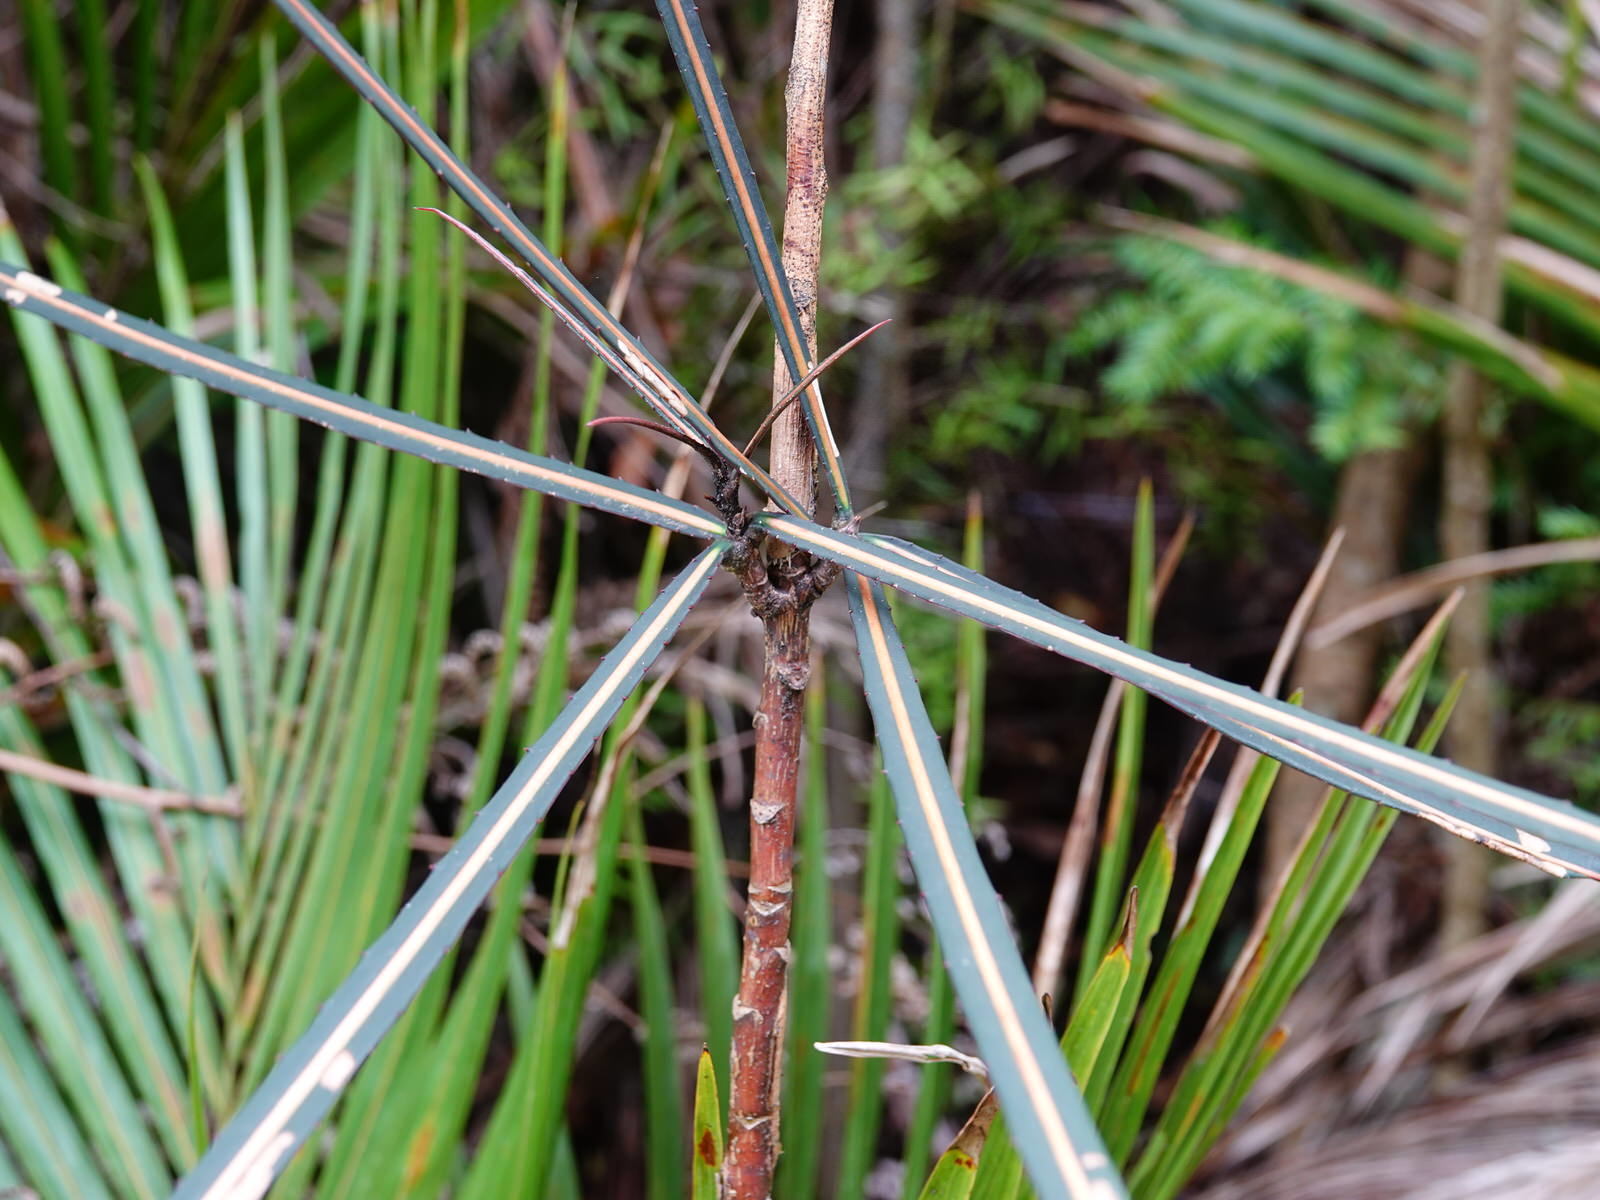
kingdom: Plantae
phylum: Tracheophyta
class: Magnoliopsida
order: Apiales
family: Araliaceae
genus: Pseudopanax
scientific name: Pseudopanax crassifolius
